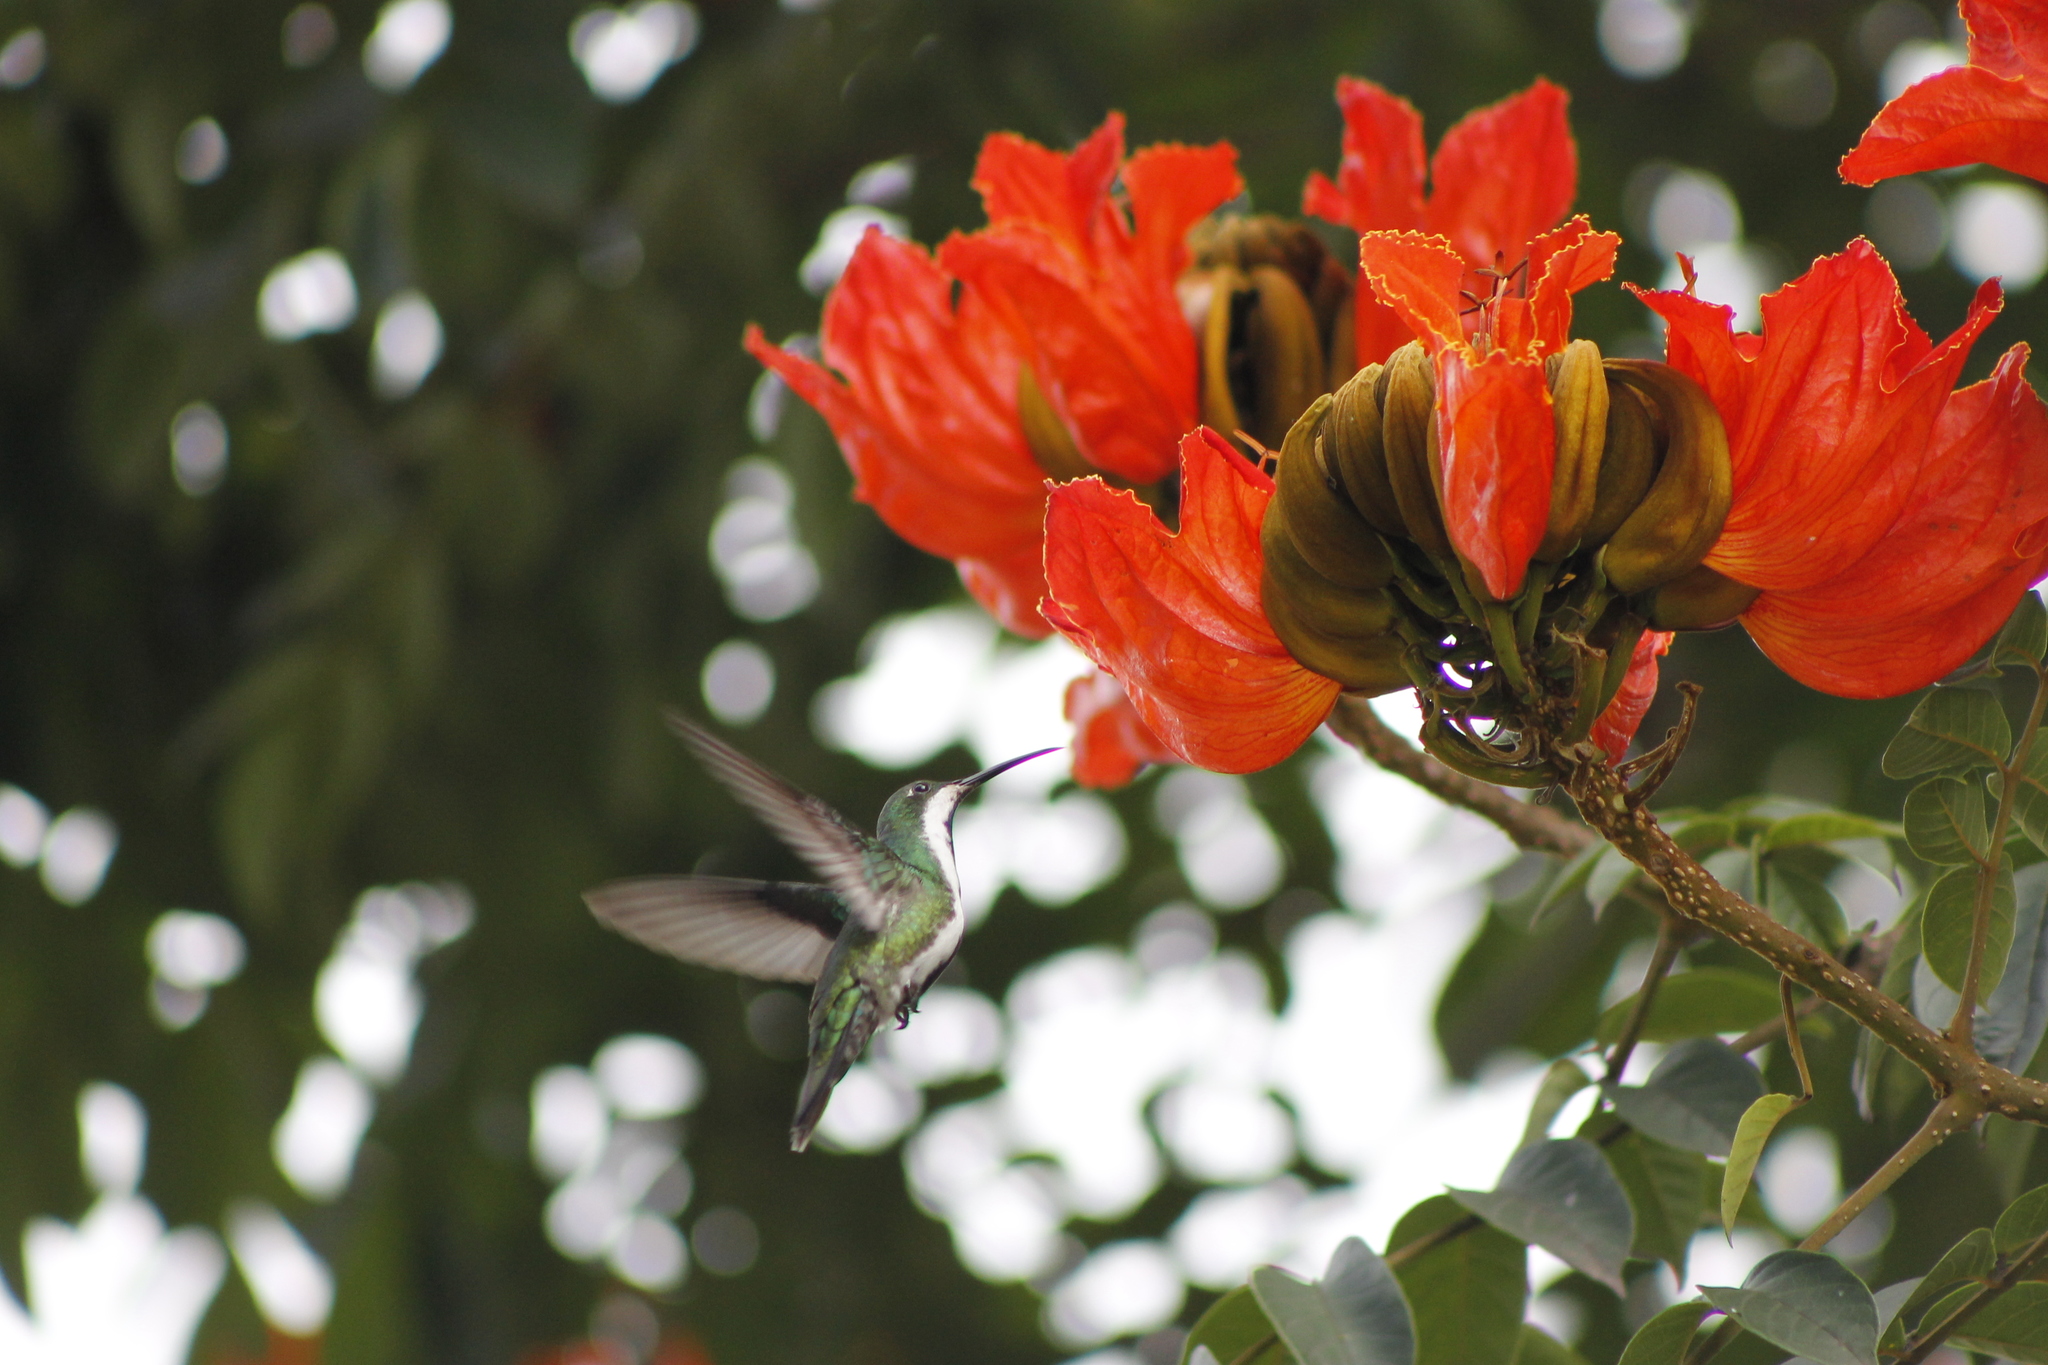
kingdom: Animalia
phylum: Chordata
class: Aves
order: Apodiformes
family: Trochilidae
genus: Anthracothorax
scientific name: Anthracothorax nigricollis
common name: Black-throated mango
